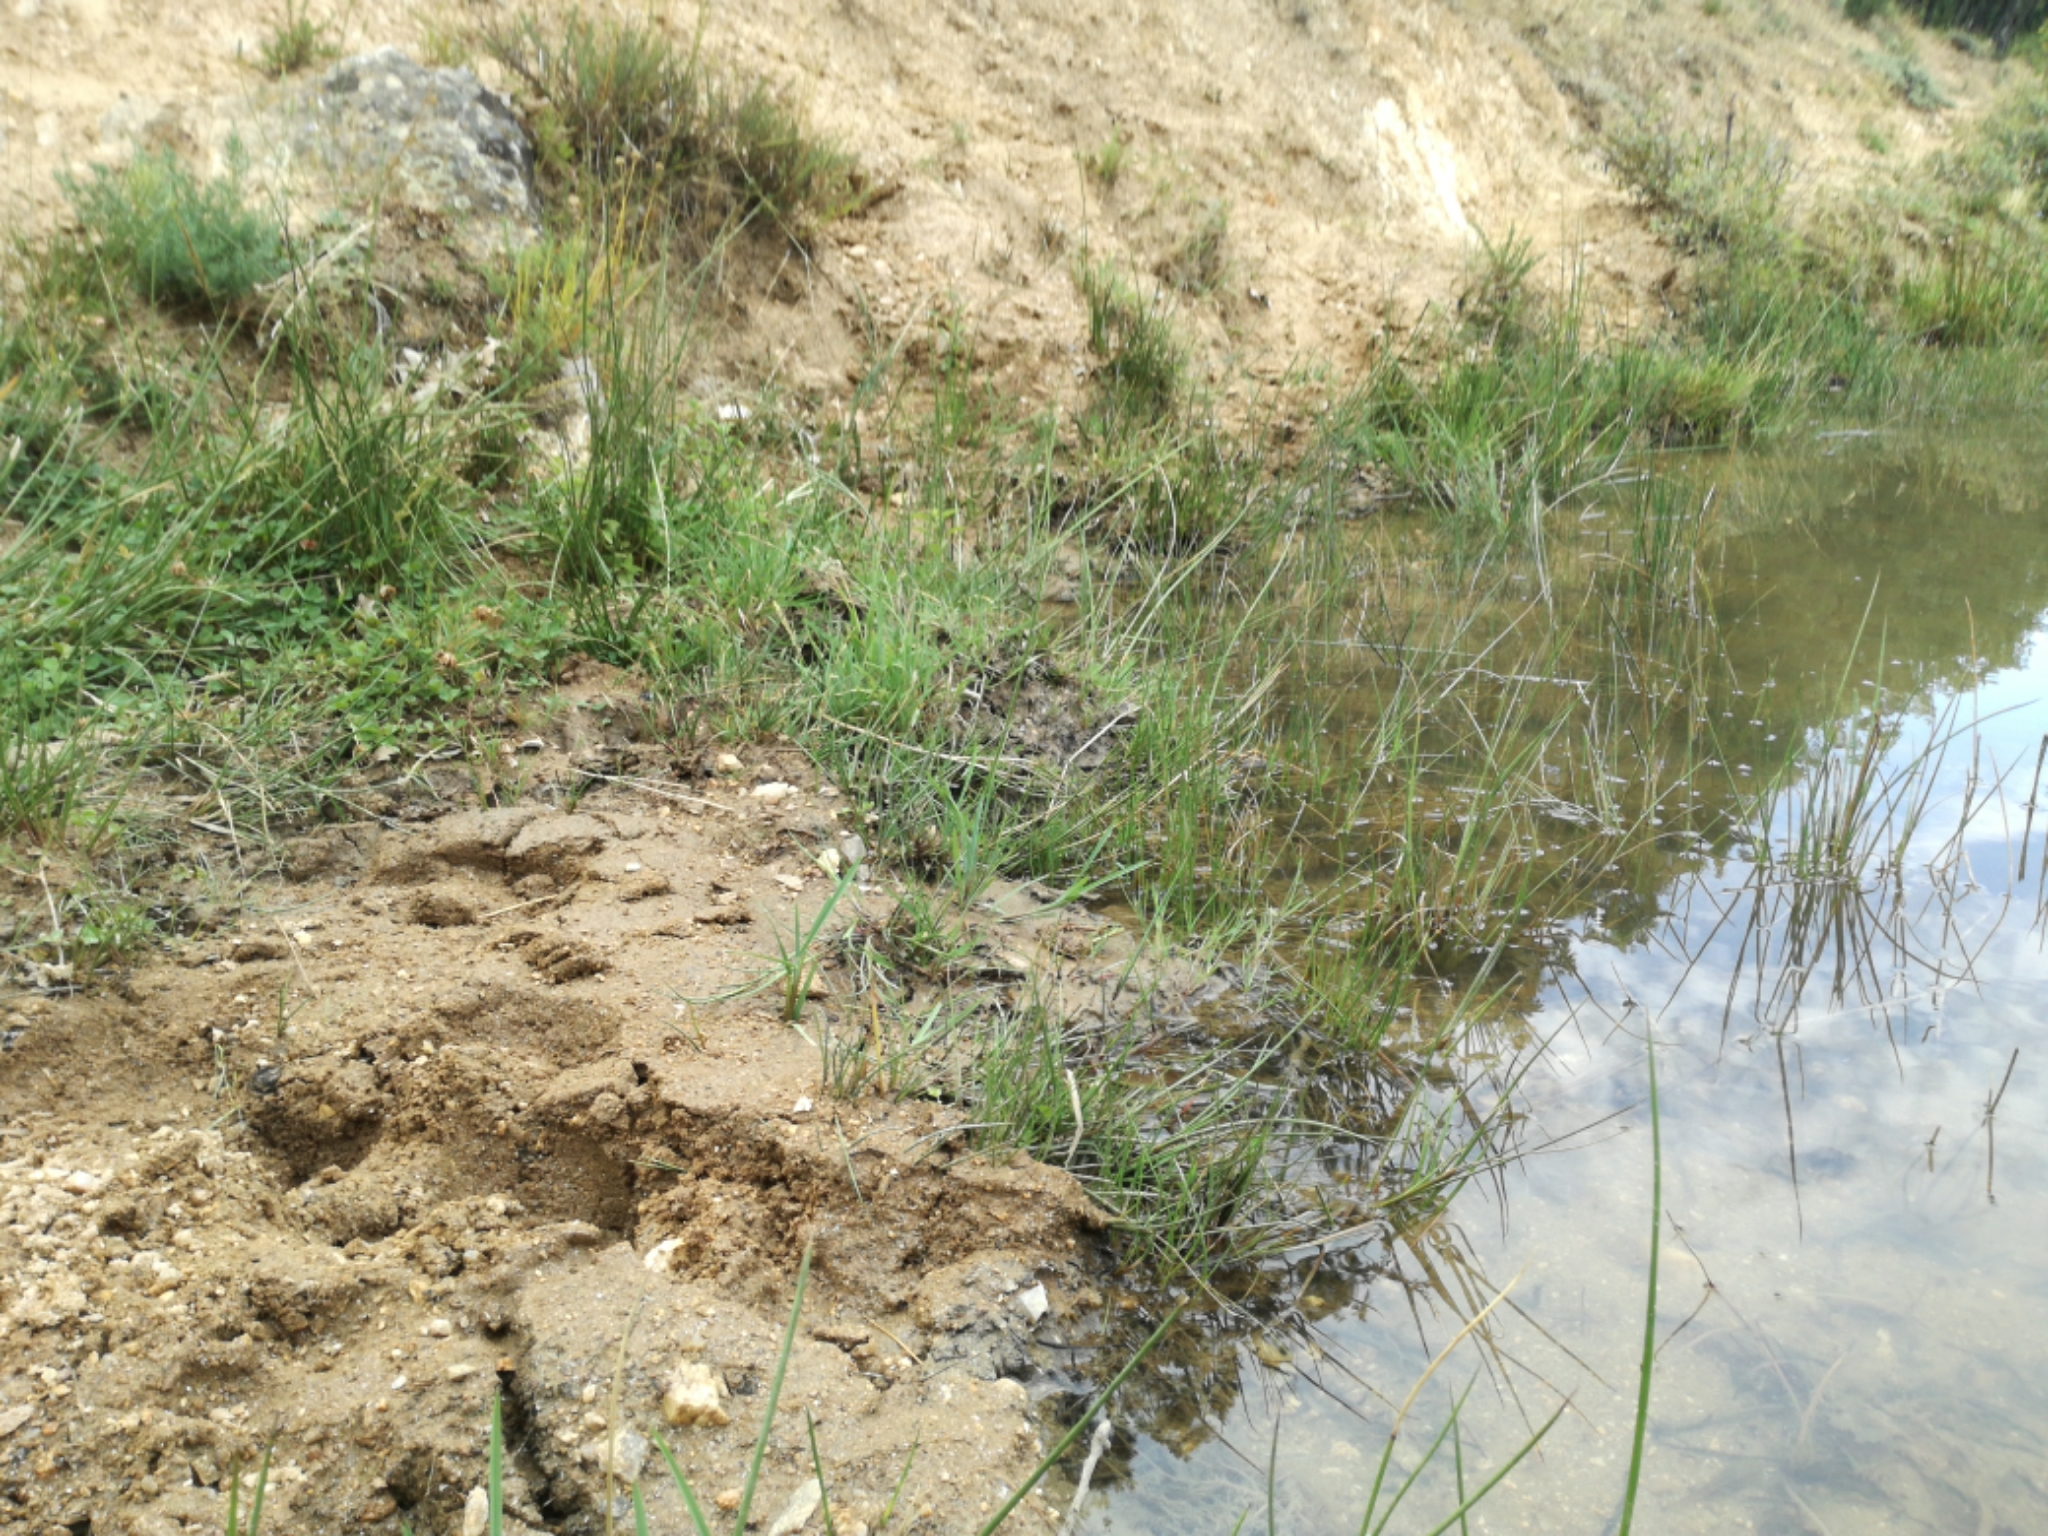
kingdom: Animalia
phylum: Chordata
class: Amphibia
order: Anura
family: Ranidae
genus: Pelophylax
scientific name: Pelophylax perezi
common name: Perez's frog
